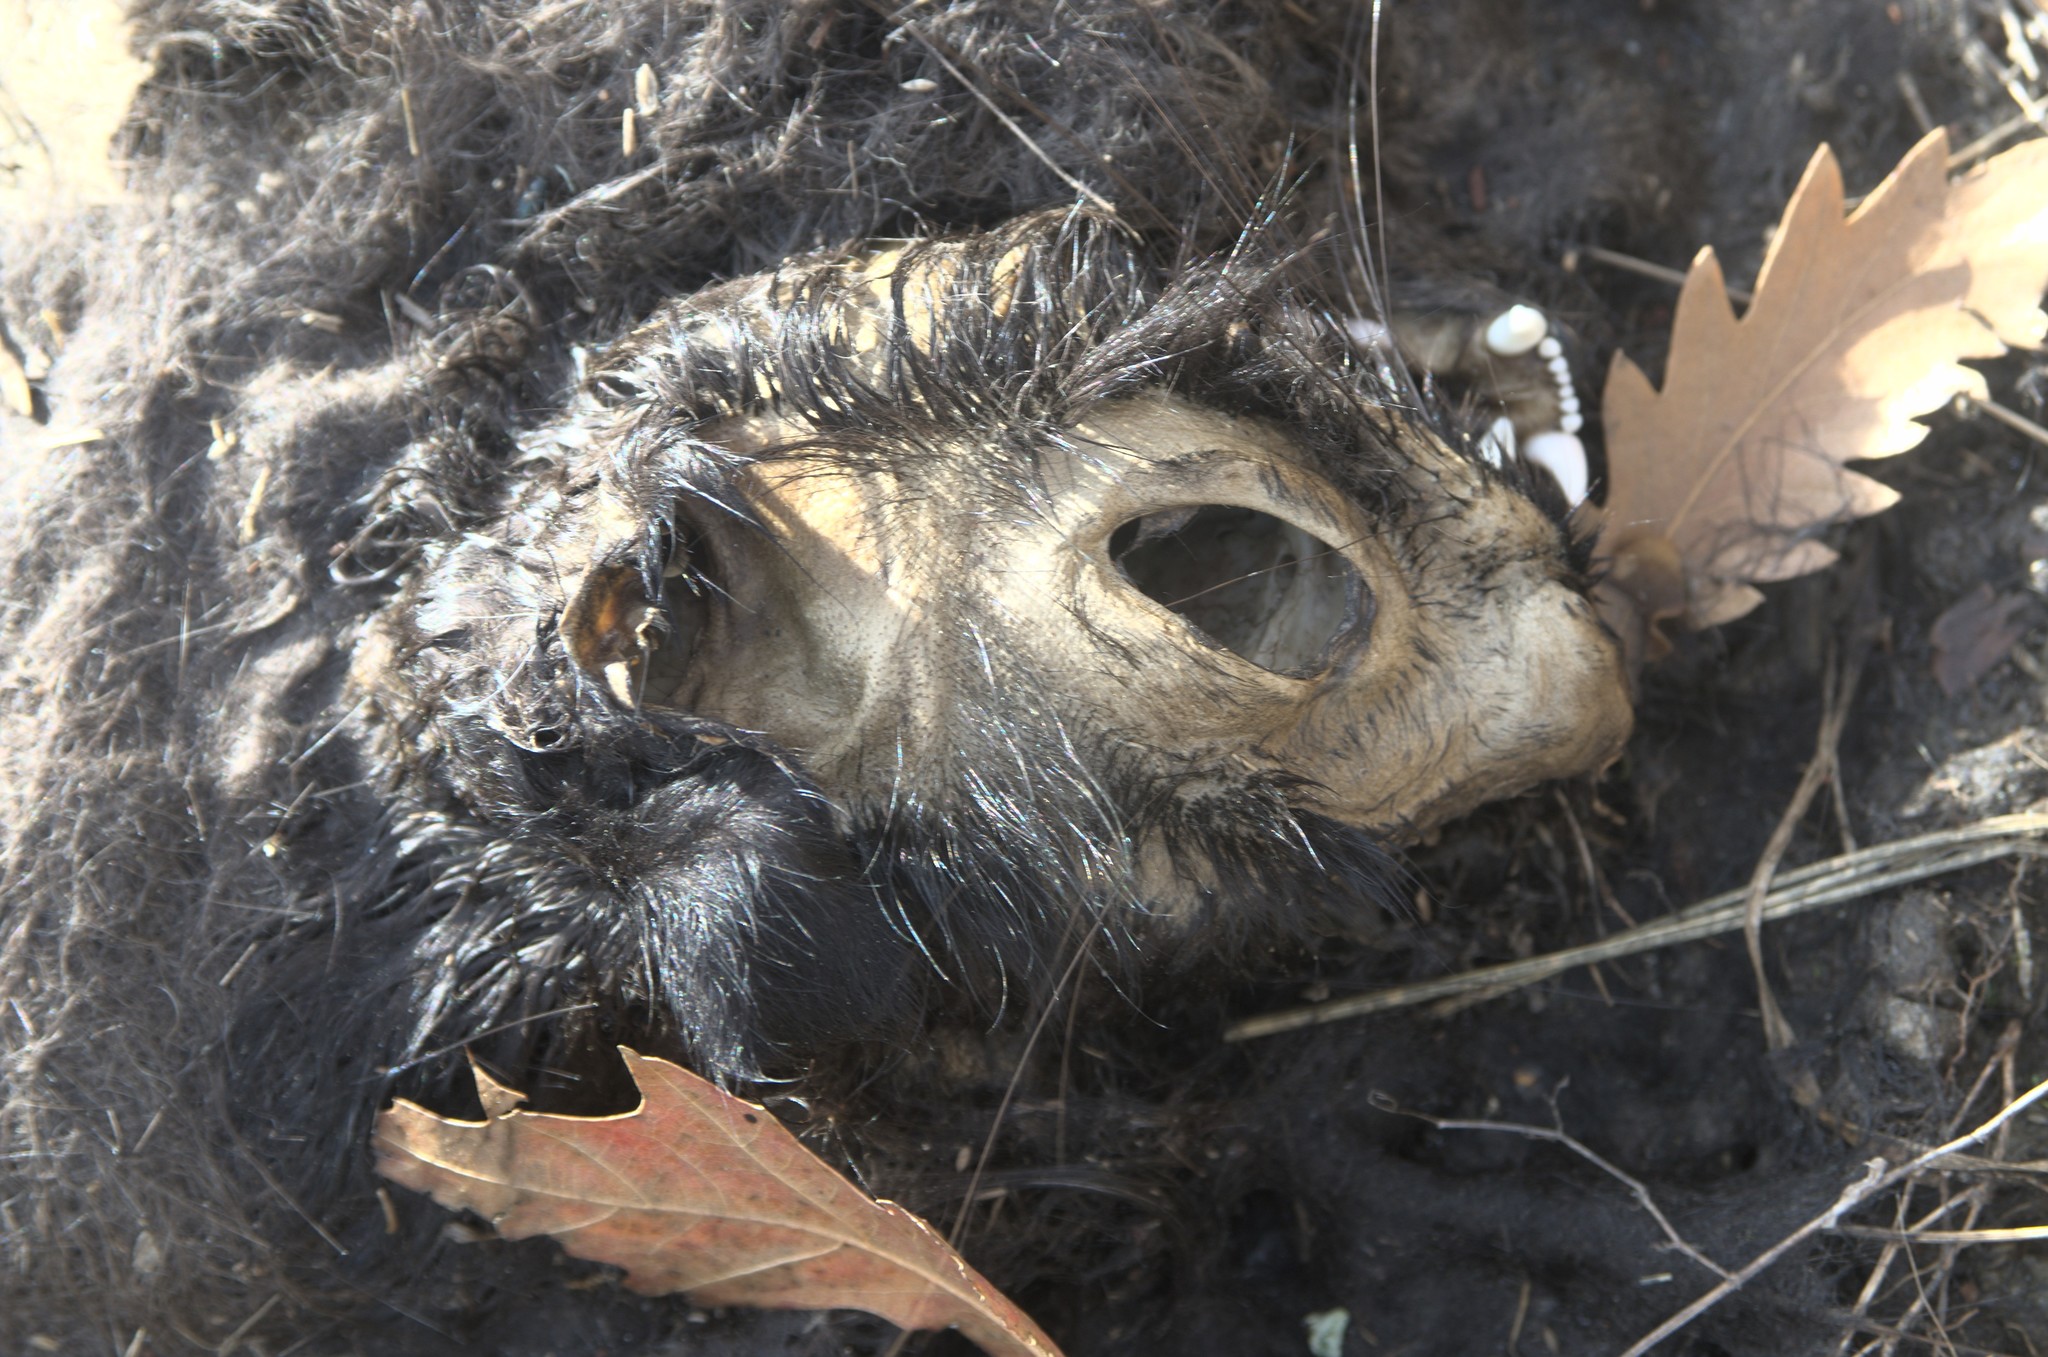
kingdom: Animalia
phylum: Chordata
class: Mammalia
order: Carnivora
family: Felidae
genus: Felis
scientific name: Felis catus
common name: Domestic cat
